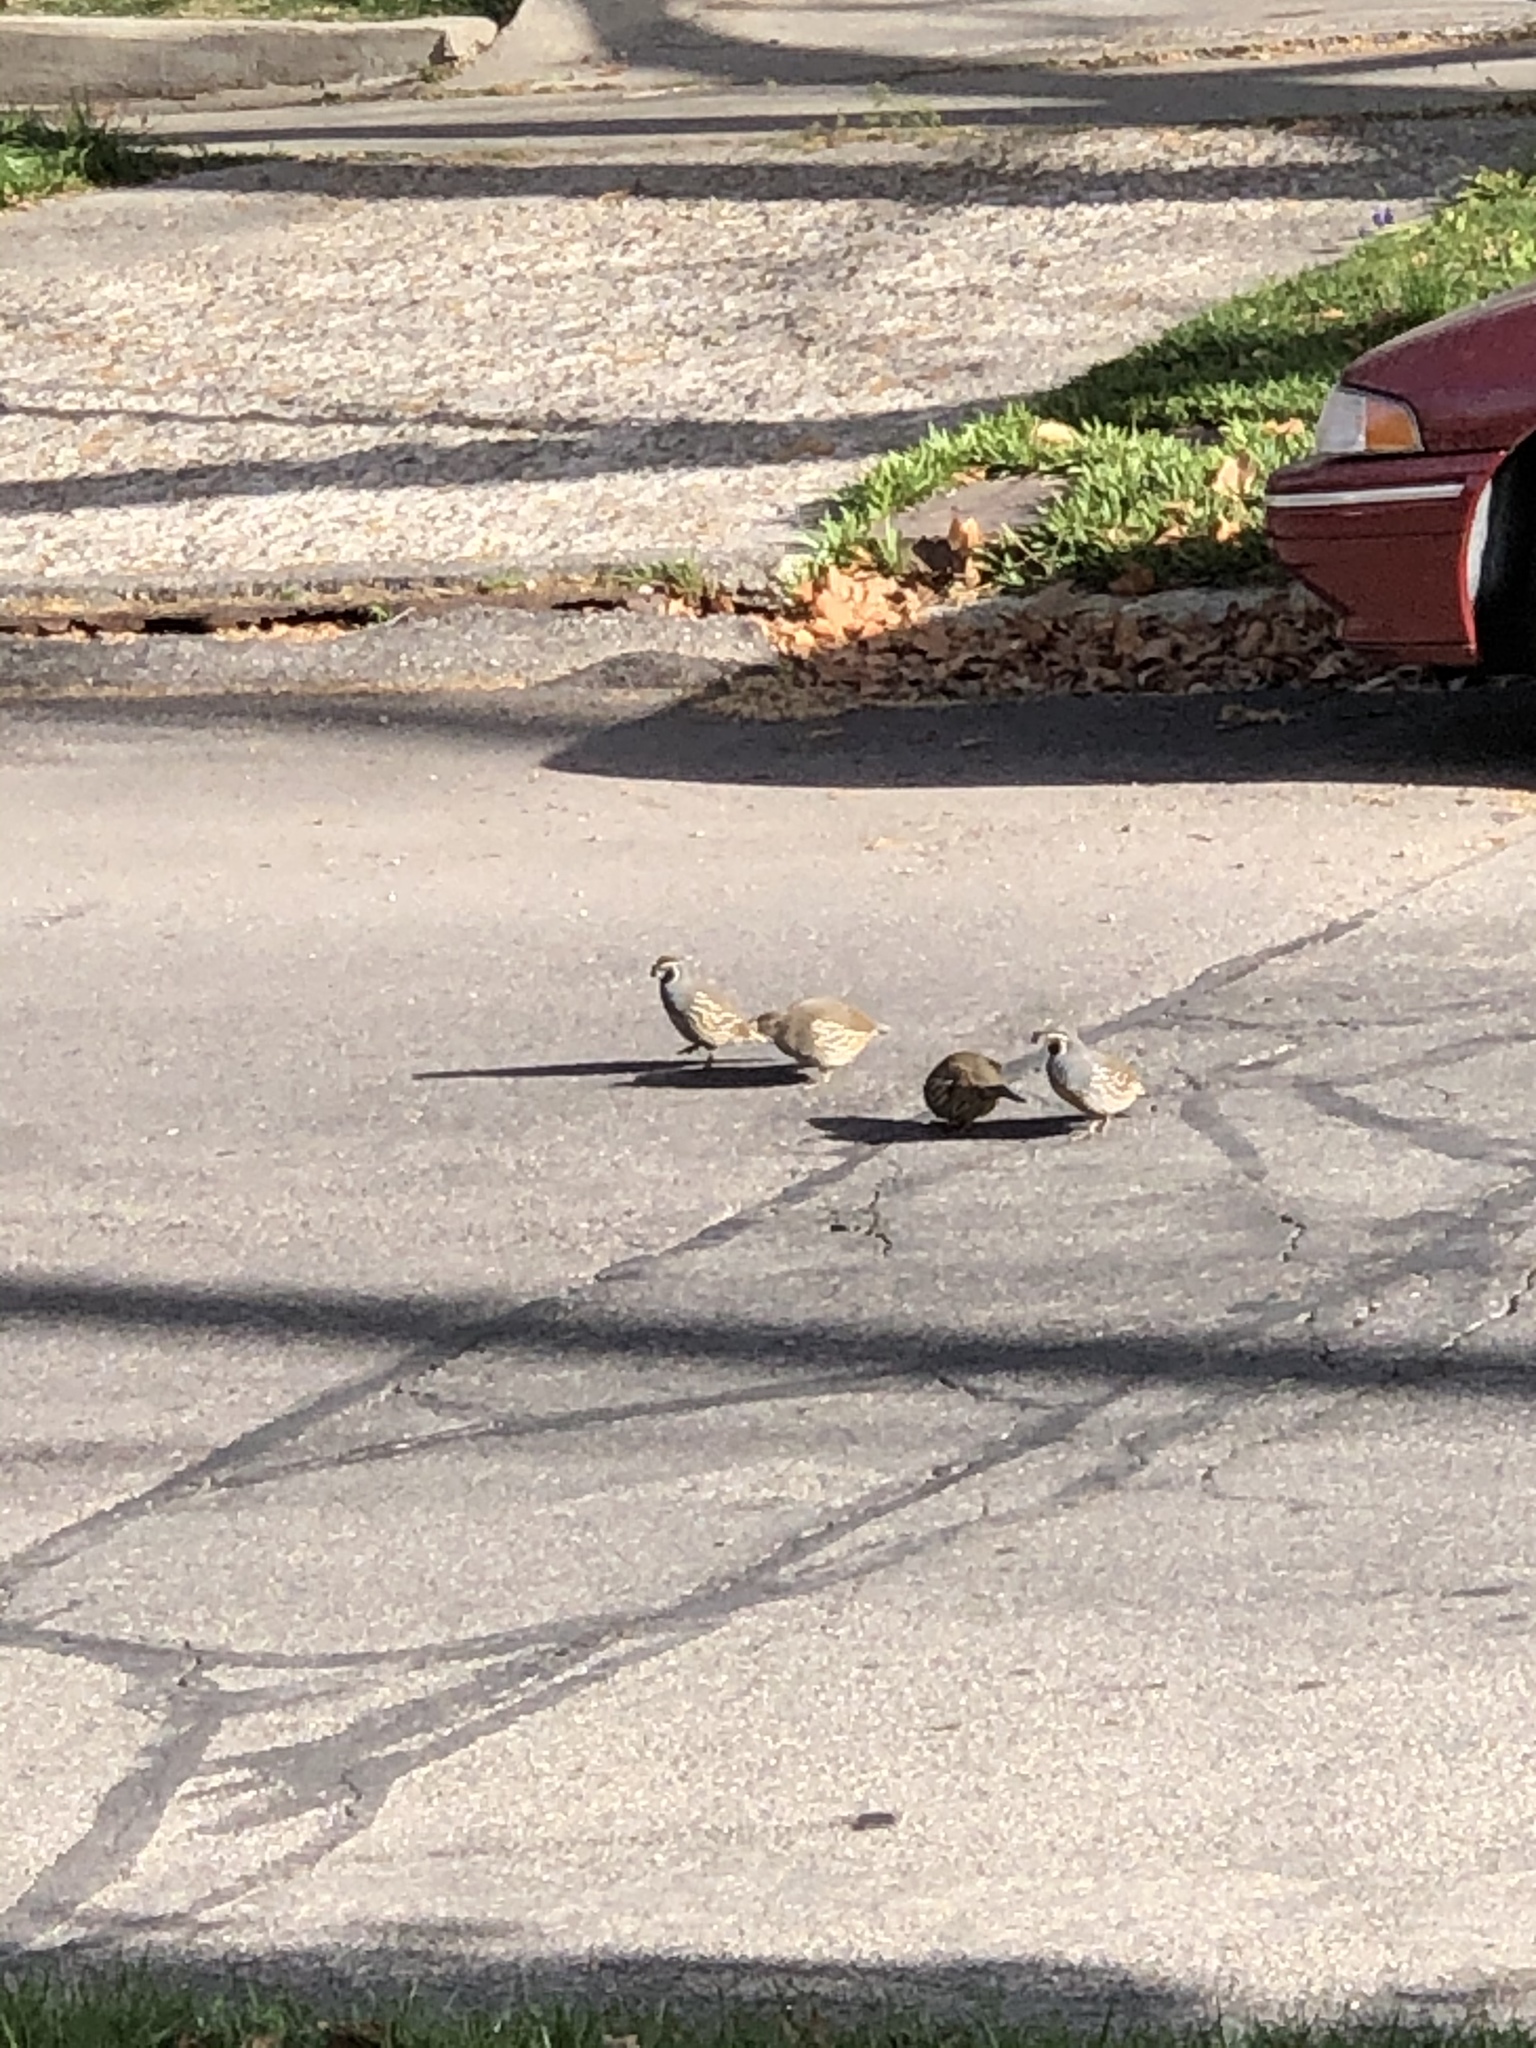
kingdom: Animalia
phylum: Chordata
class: Aves
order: Galliformes
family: Odontophoridae
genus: Callipepla
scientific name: Callipepla californica
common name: California quail
